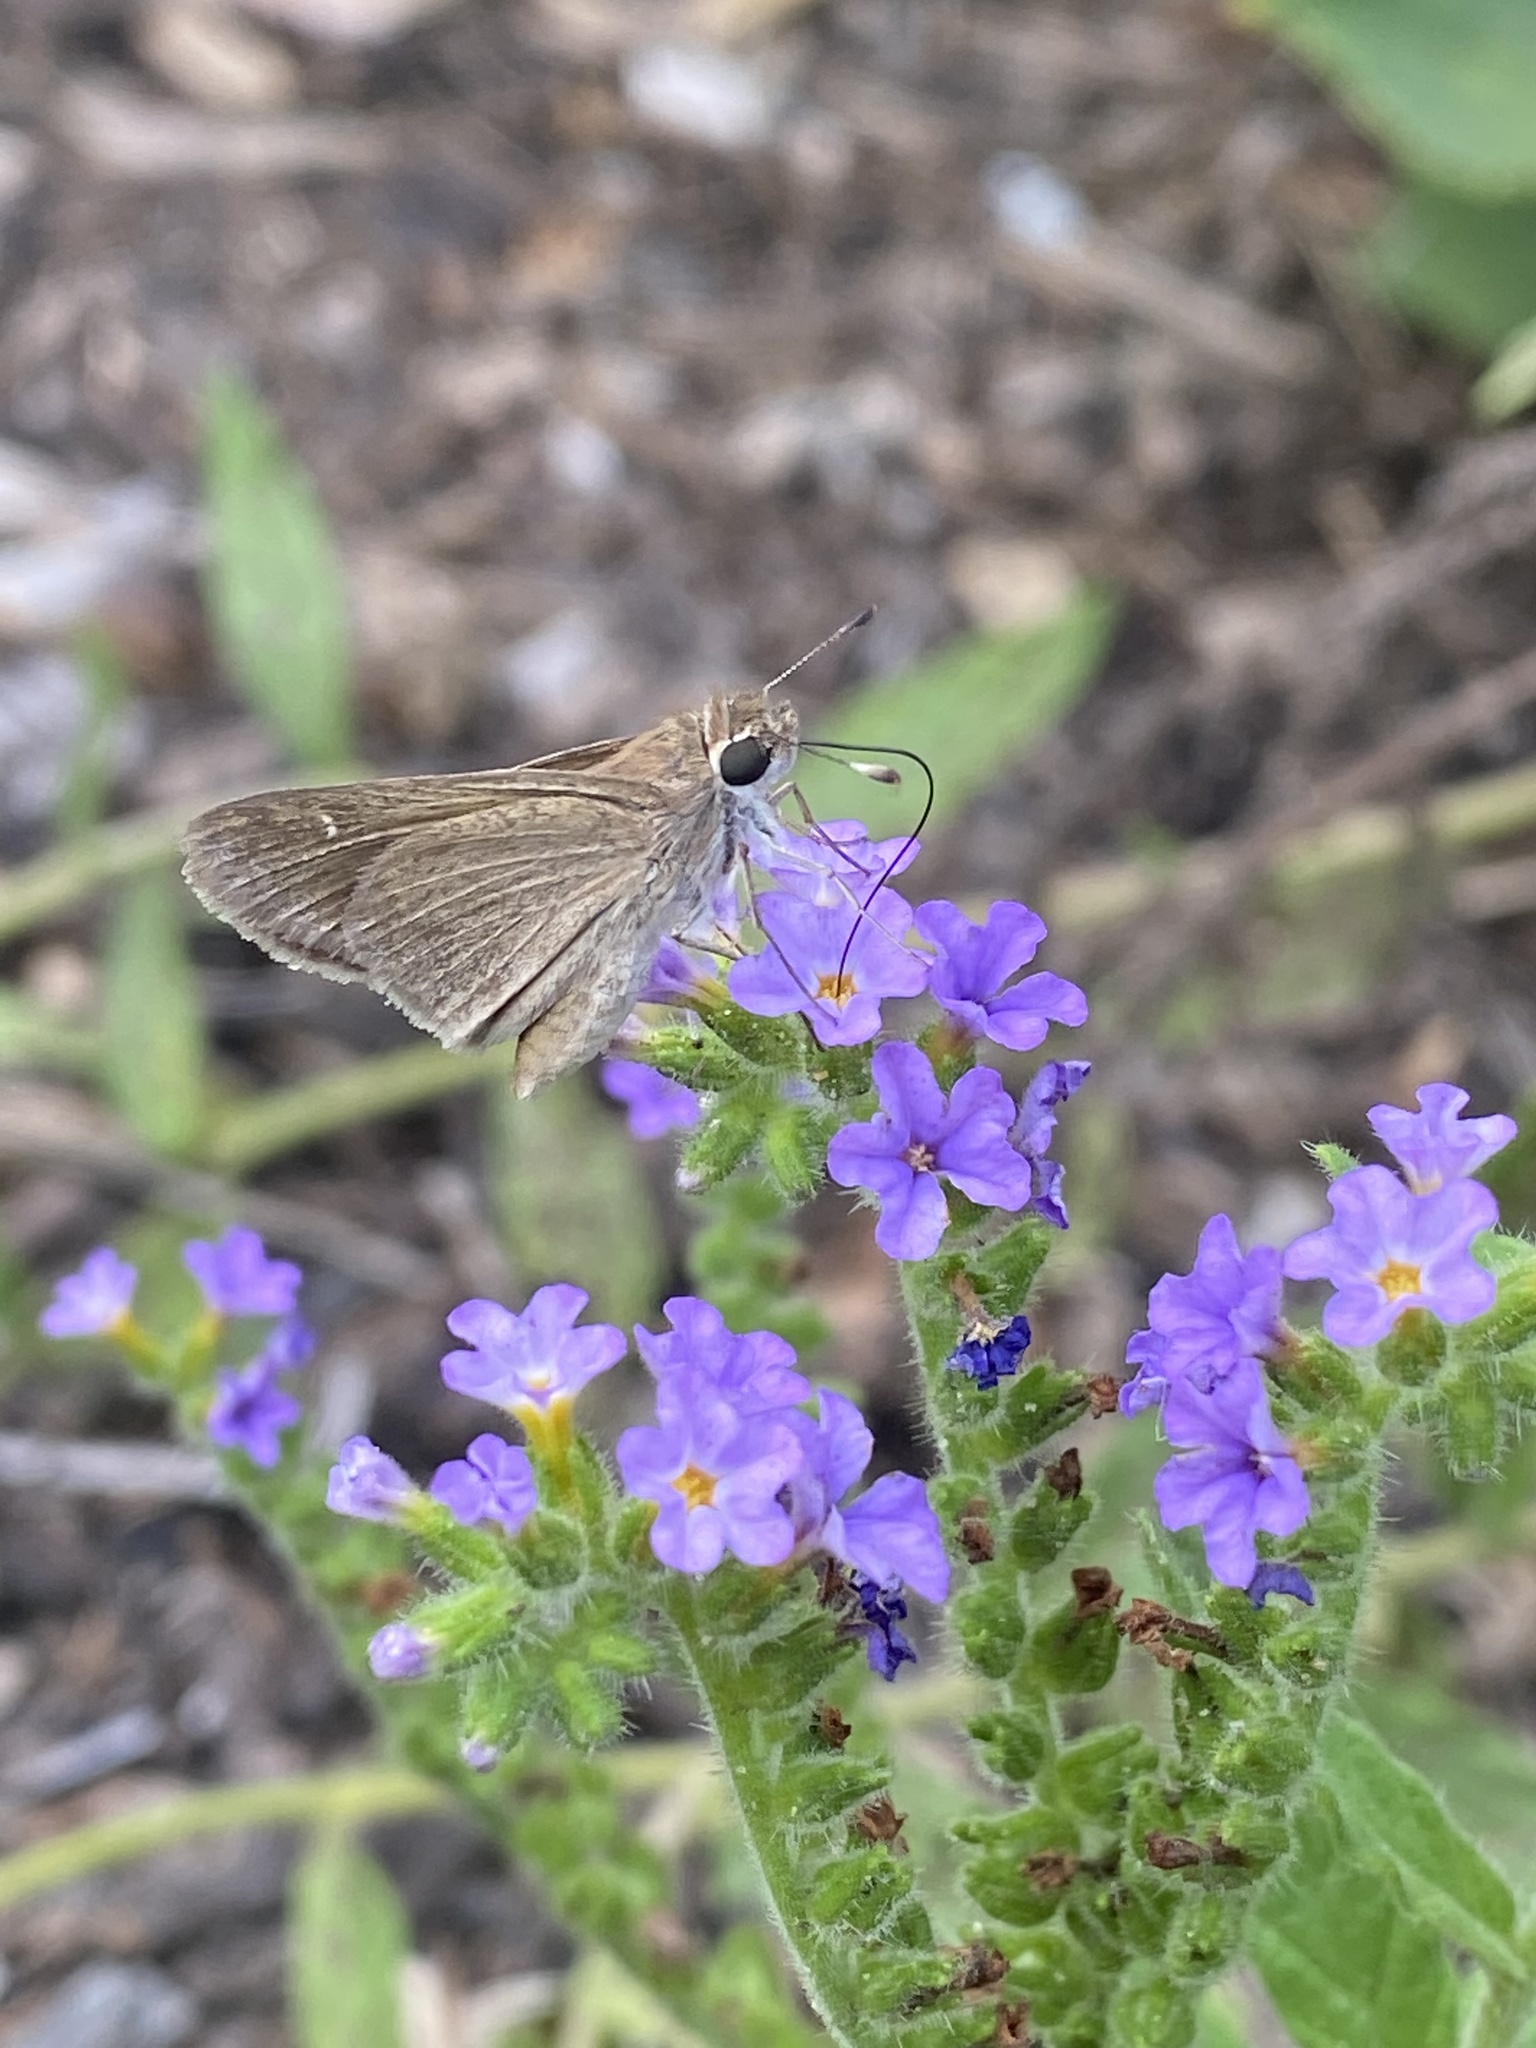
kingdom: Animalia
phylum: Arthropoda
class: Insecta
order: Lepidoptera
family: Hesperiidae
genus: Lerodea
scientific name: Lerodea eufala
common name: Eufala skipper
